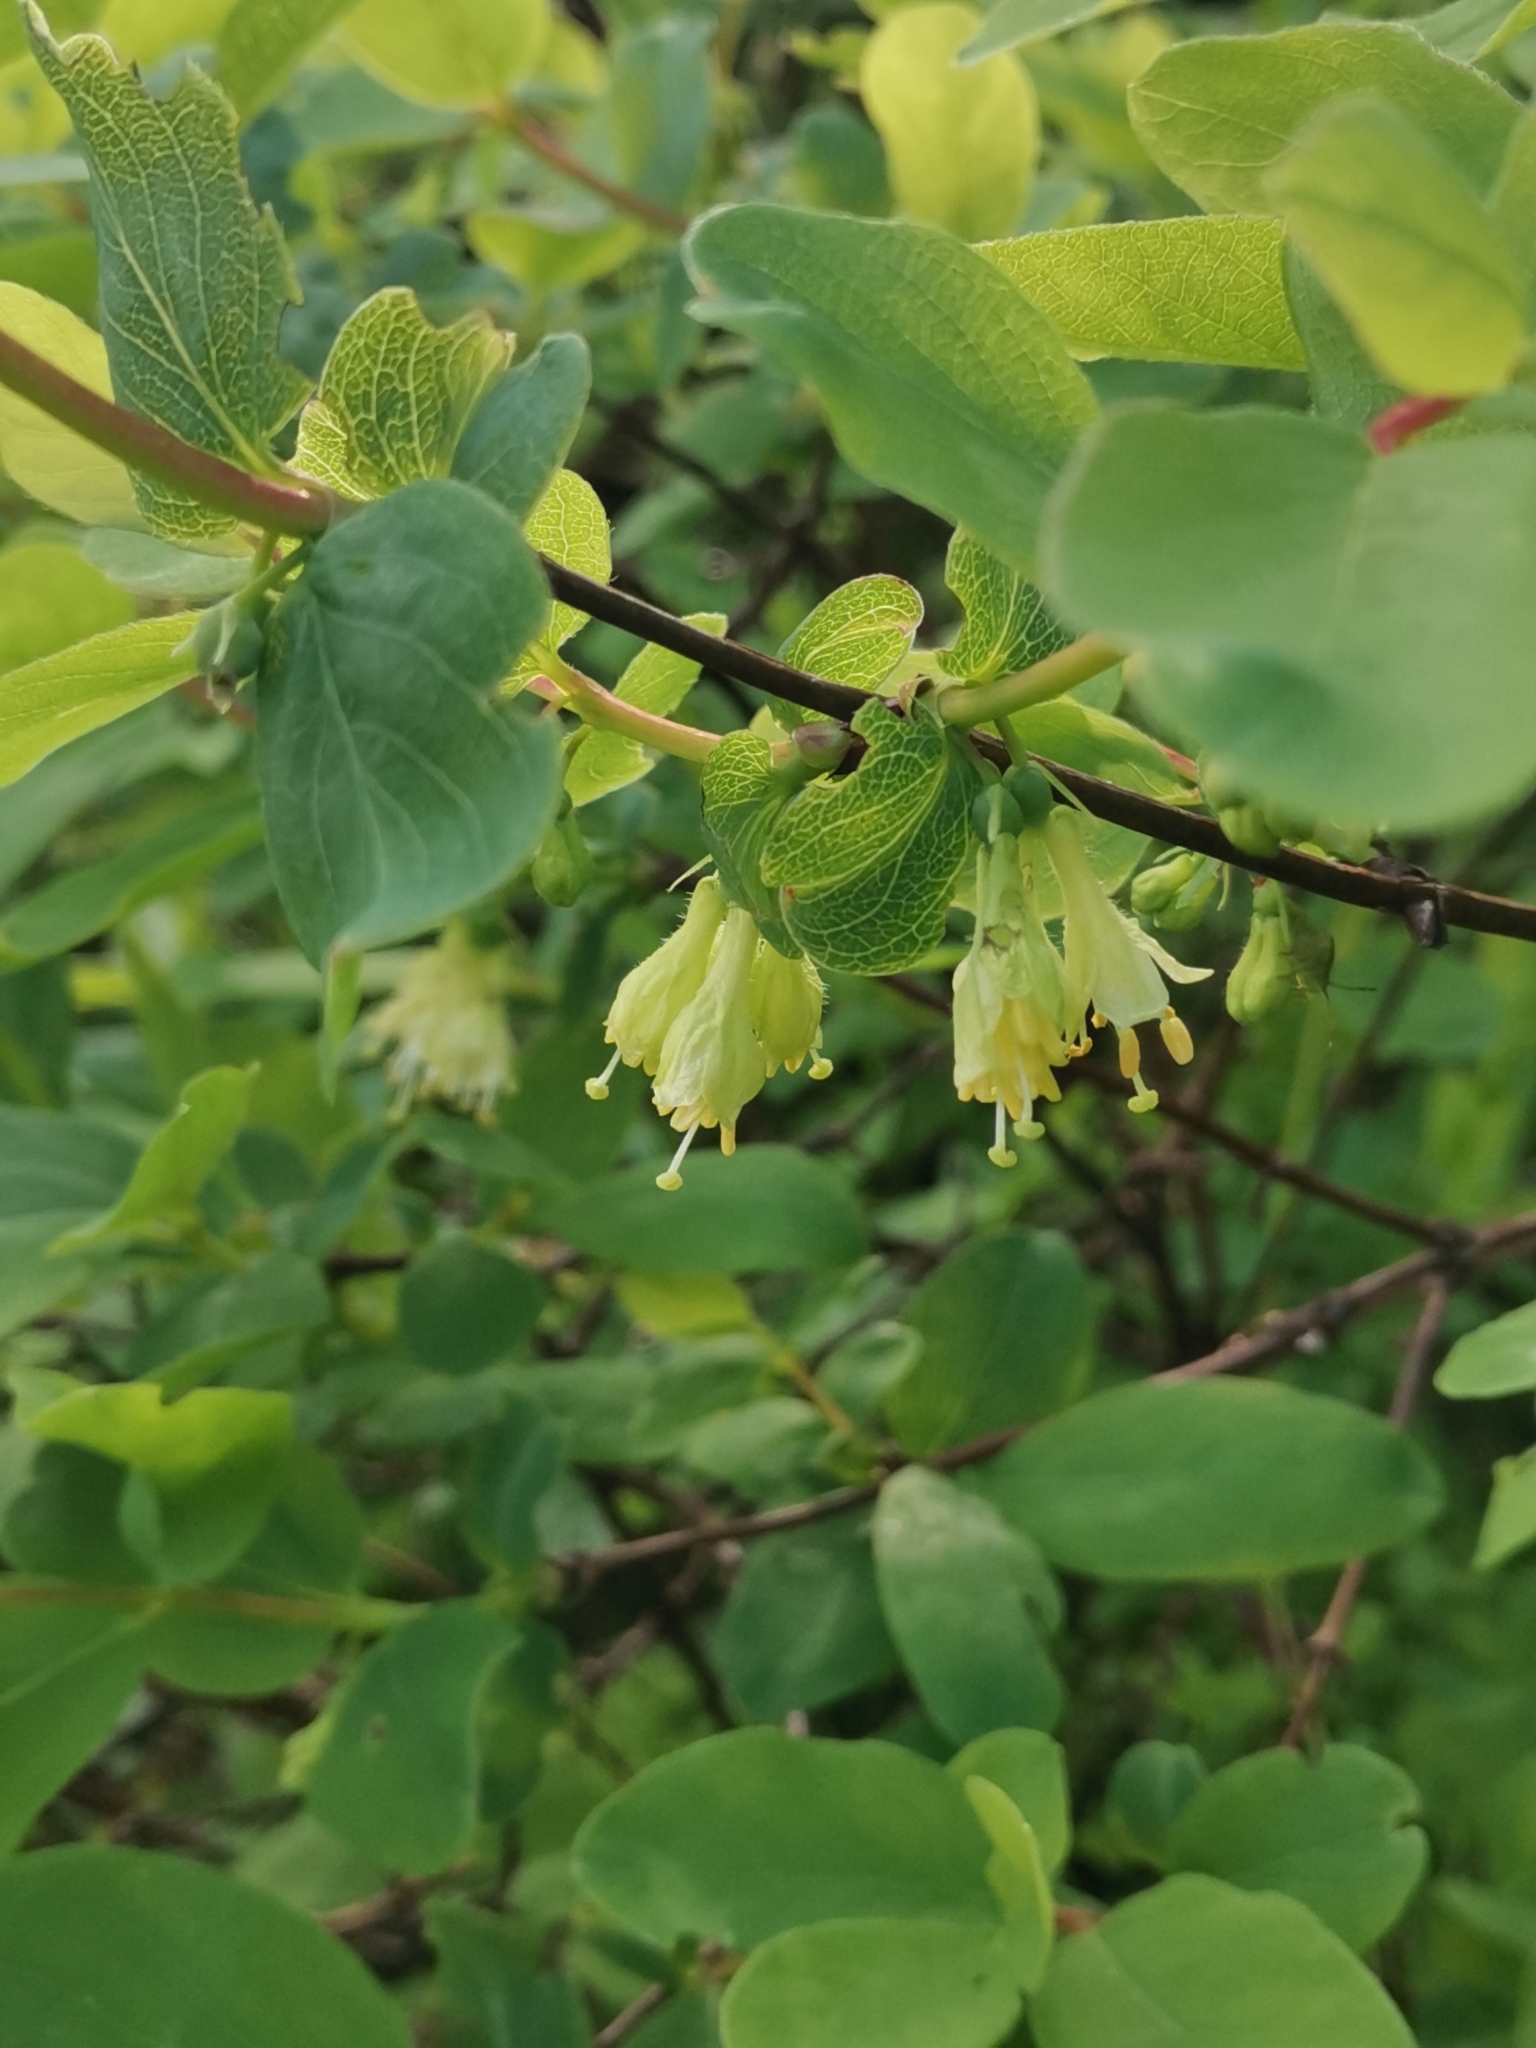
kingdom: Plantae
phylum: Tracheophyta
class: Magnoliopsida
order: Dipsacales
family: Caprifoliaceae
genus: Lonicera
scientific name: Lonicera caerulea
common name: Blue honeysuckle
